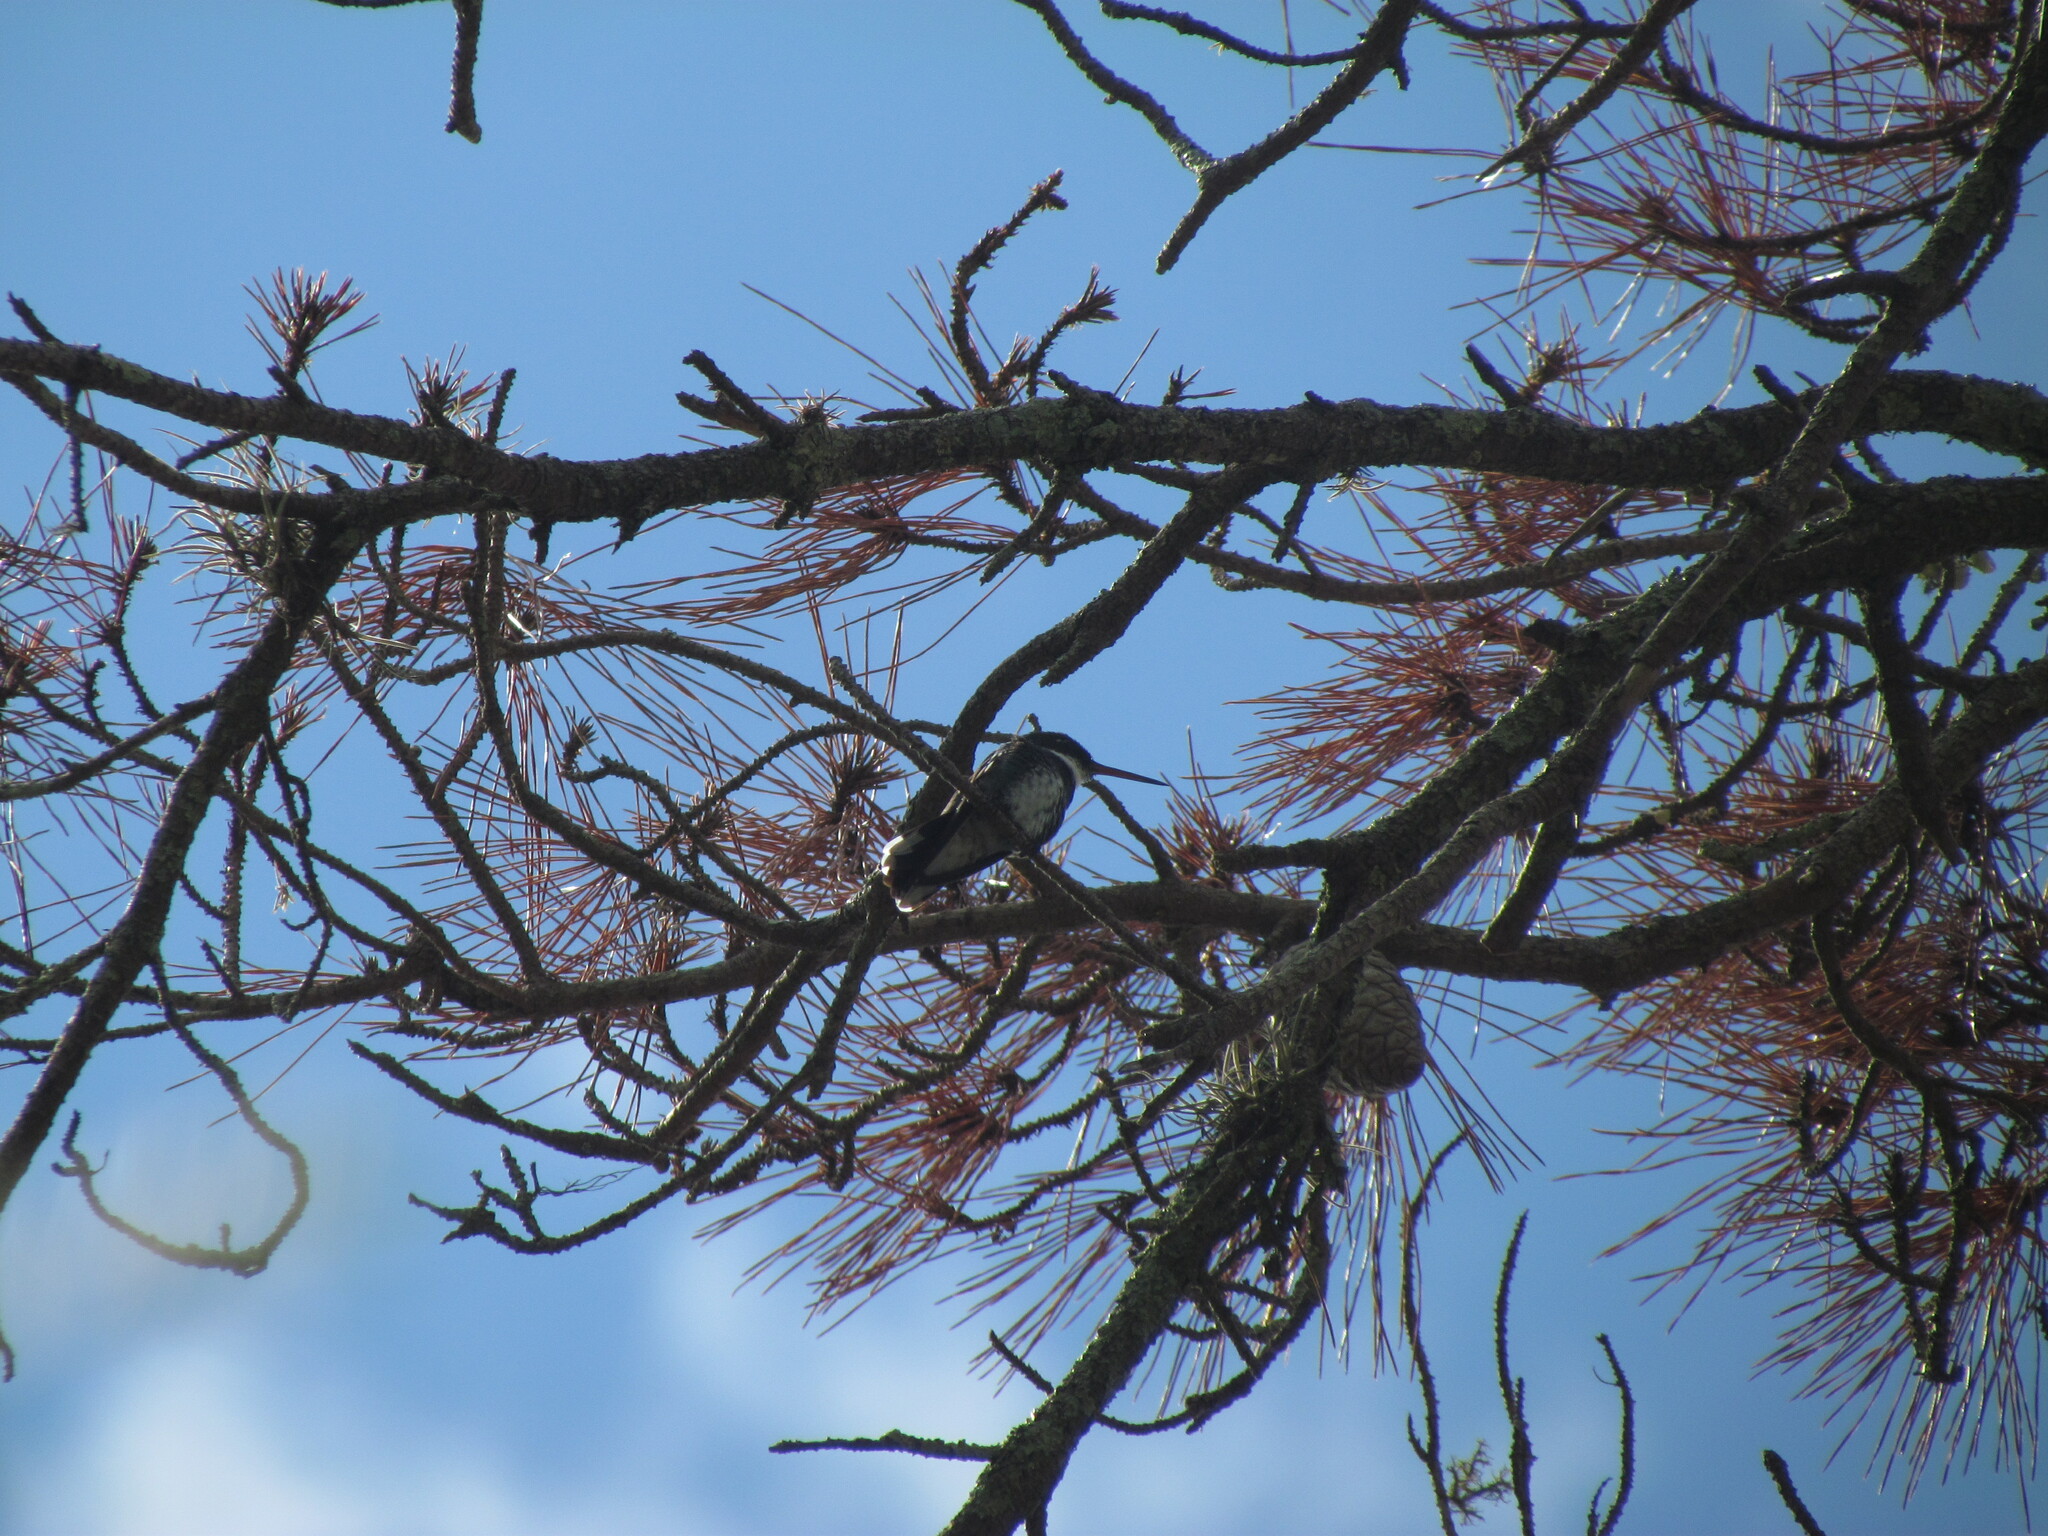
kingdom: Animalia
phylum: Chordata
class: Aves
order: Apodiformes
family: Trochilidae
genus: Leucochloris
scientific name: Leucochloris albicollis
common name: White-throated hummingbird
